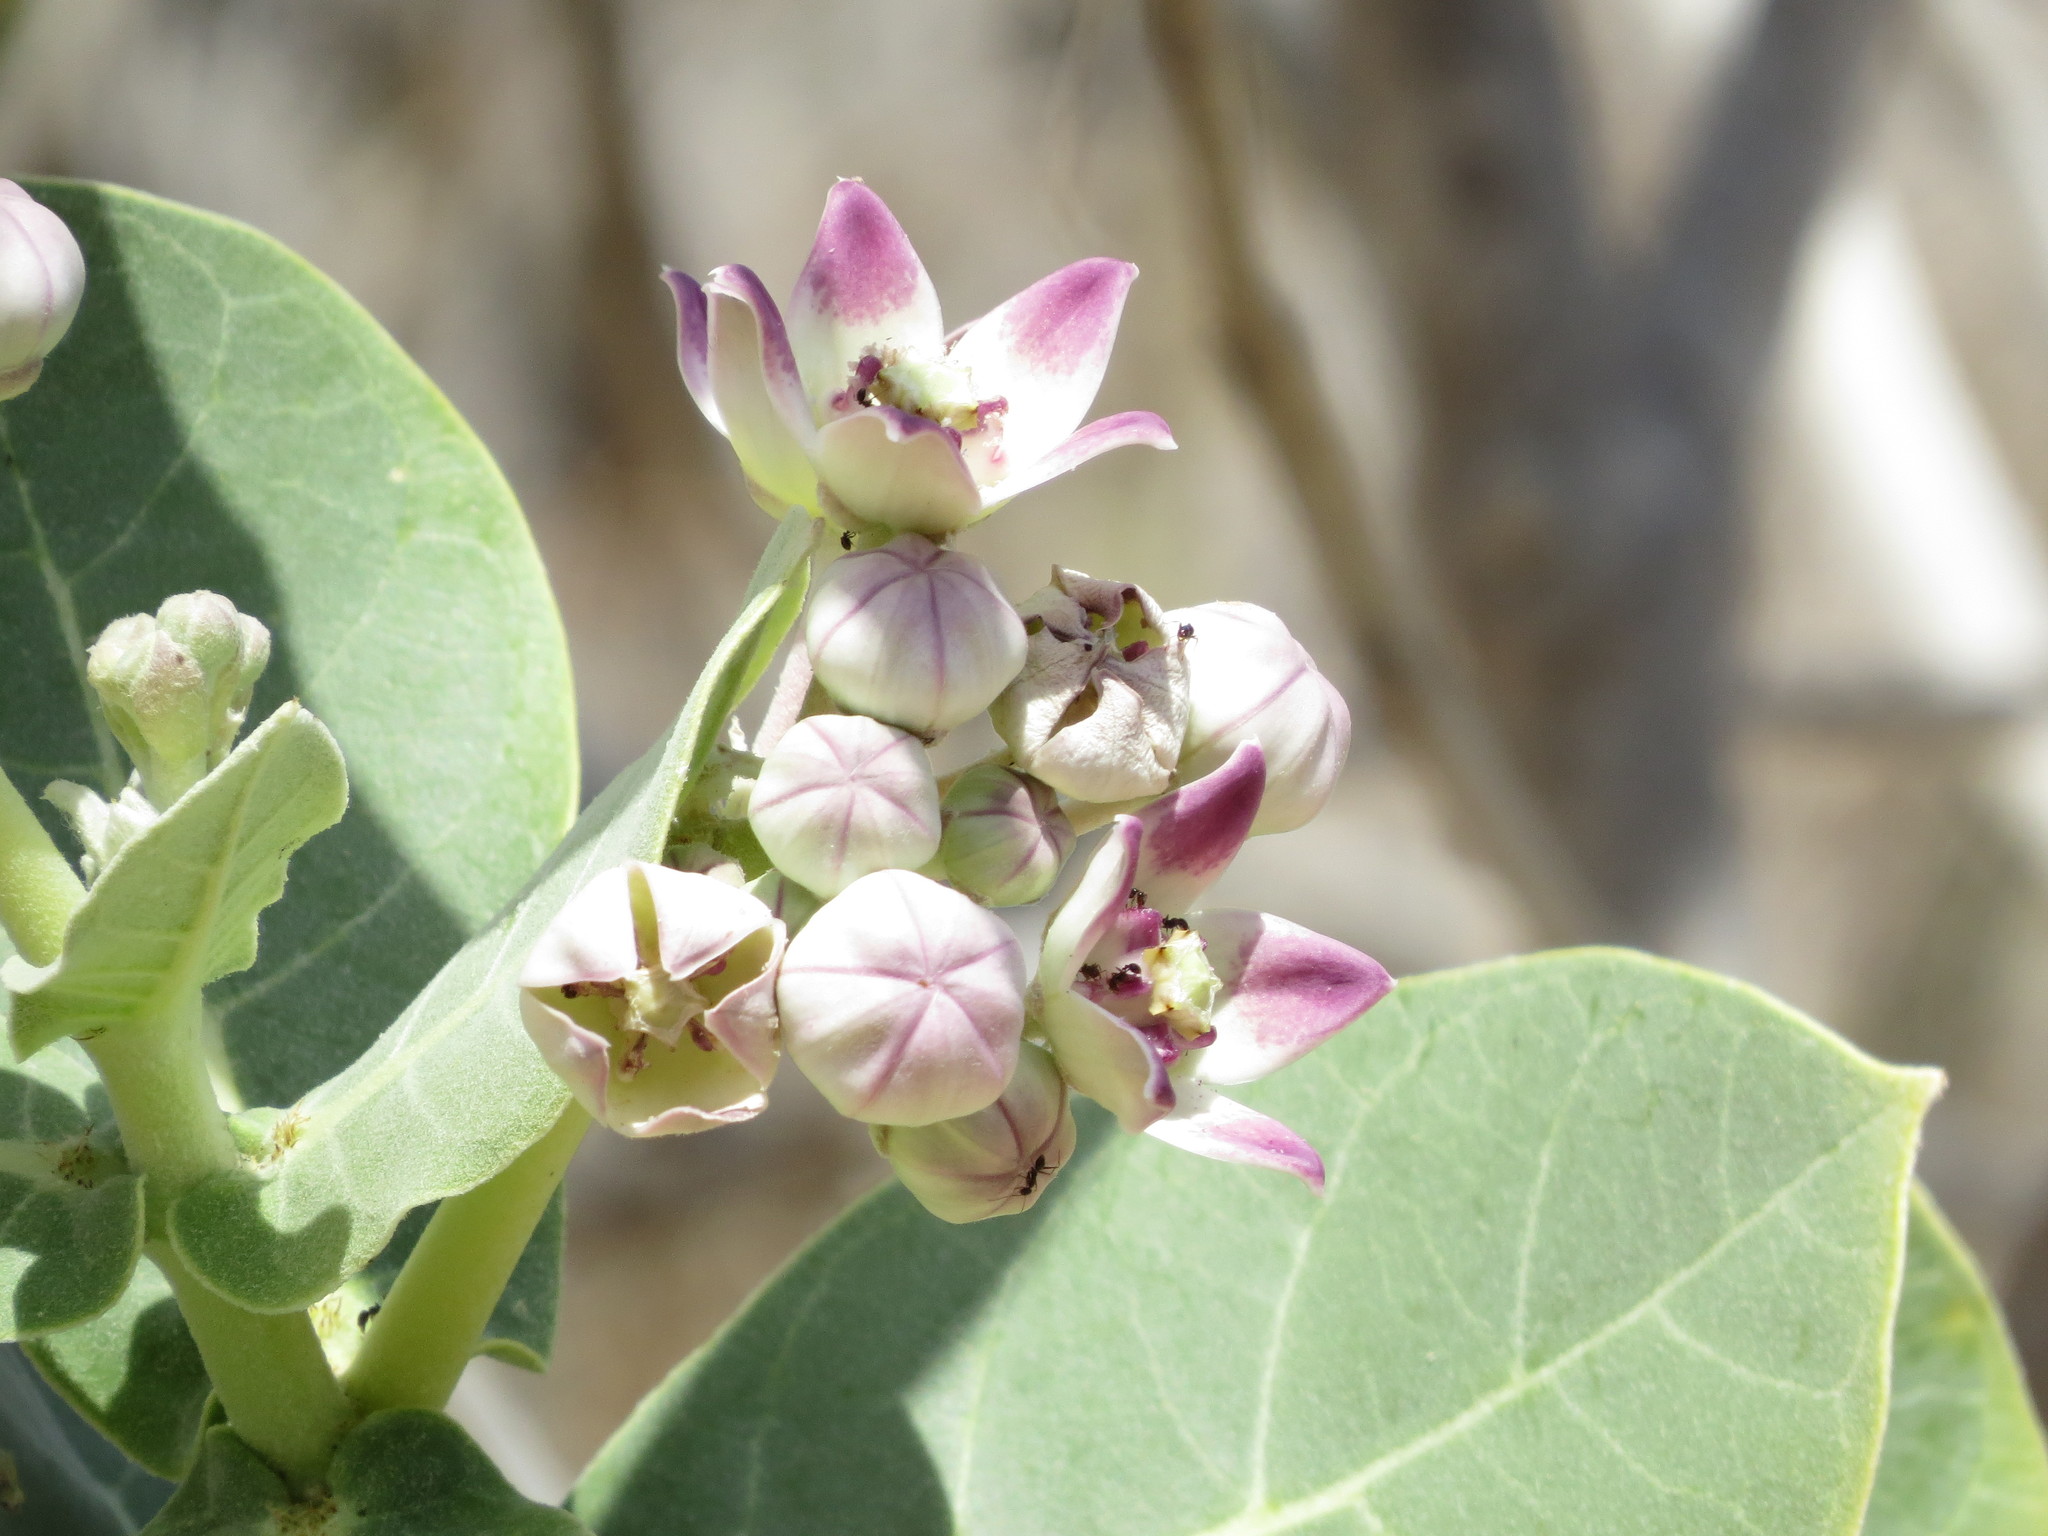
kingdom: Plantae
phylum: Tracheophyta
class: Magnoliopsida
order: Gentianales
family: Apocynaceae
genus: Calotropis
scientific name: Calotropis procera
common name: Roostertree
